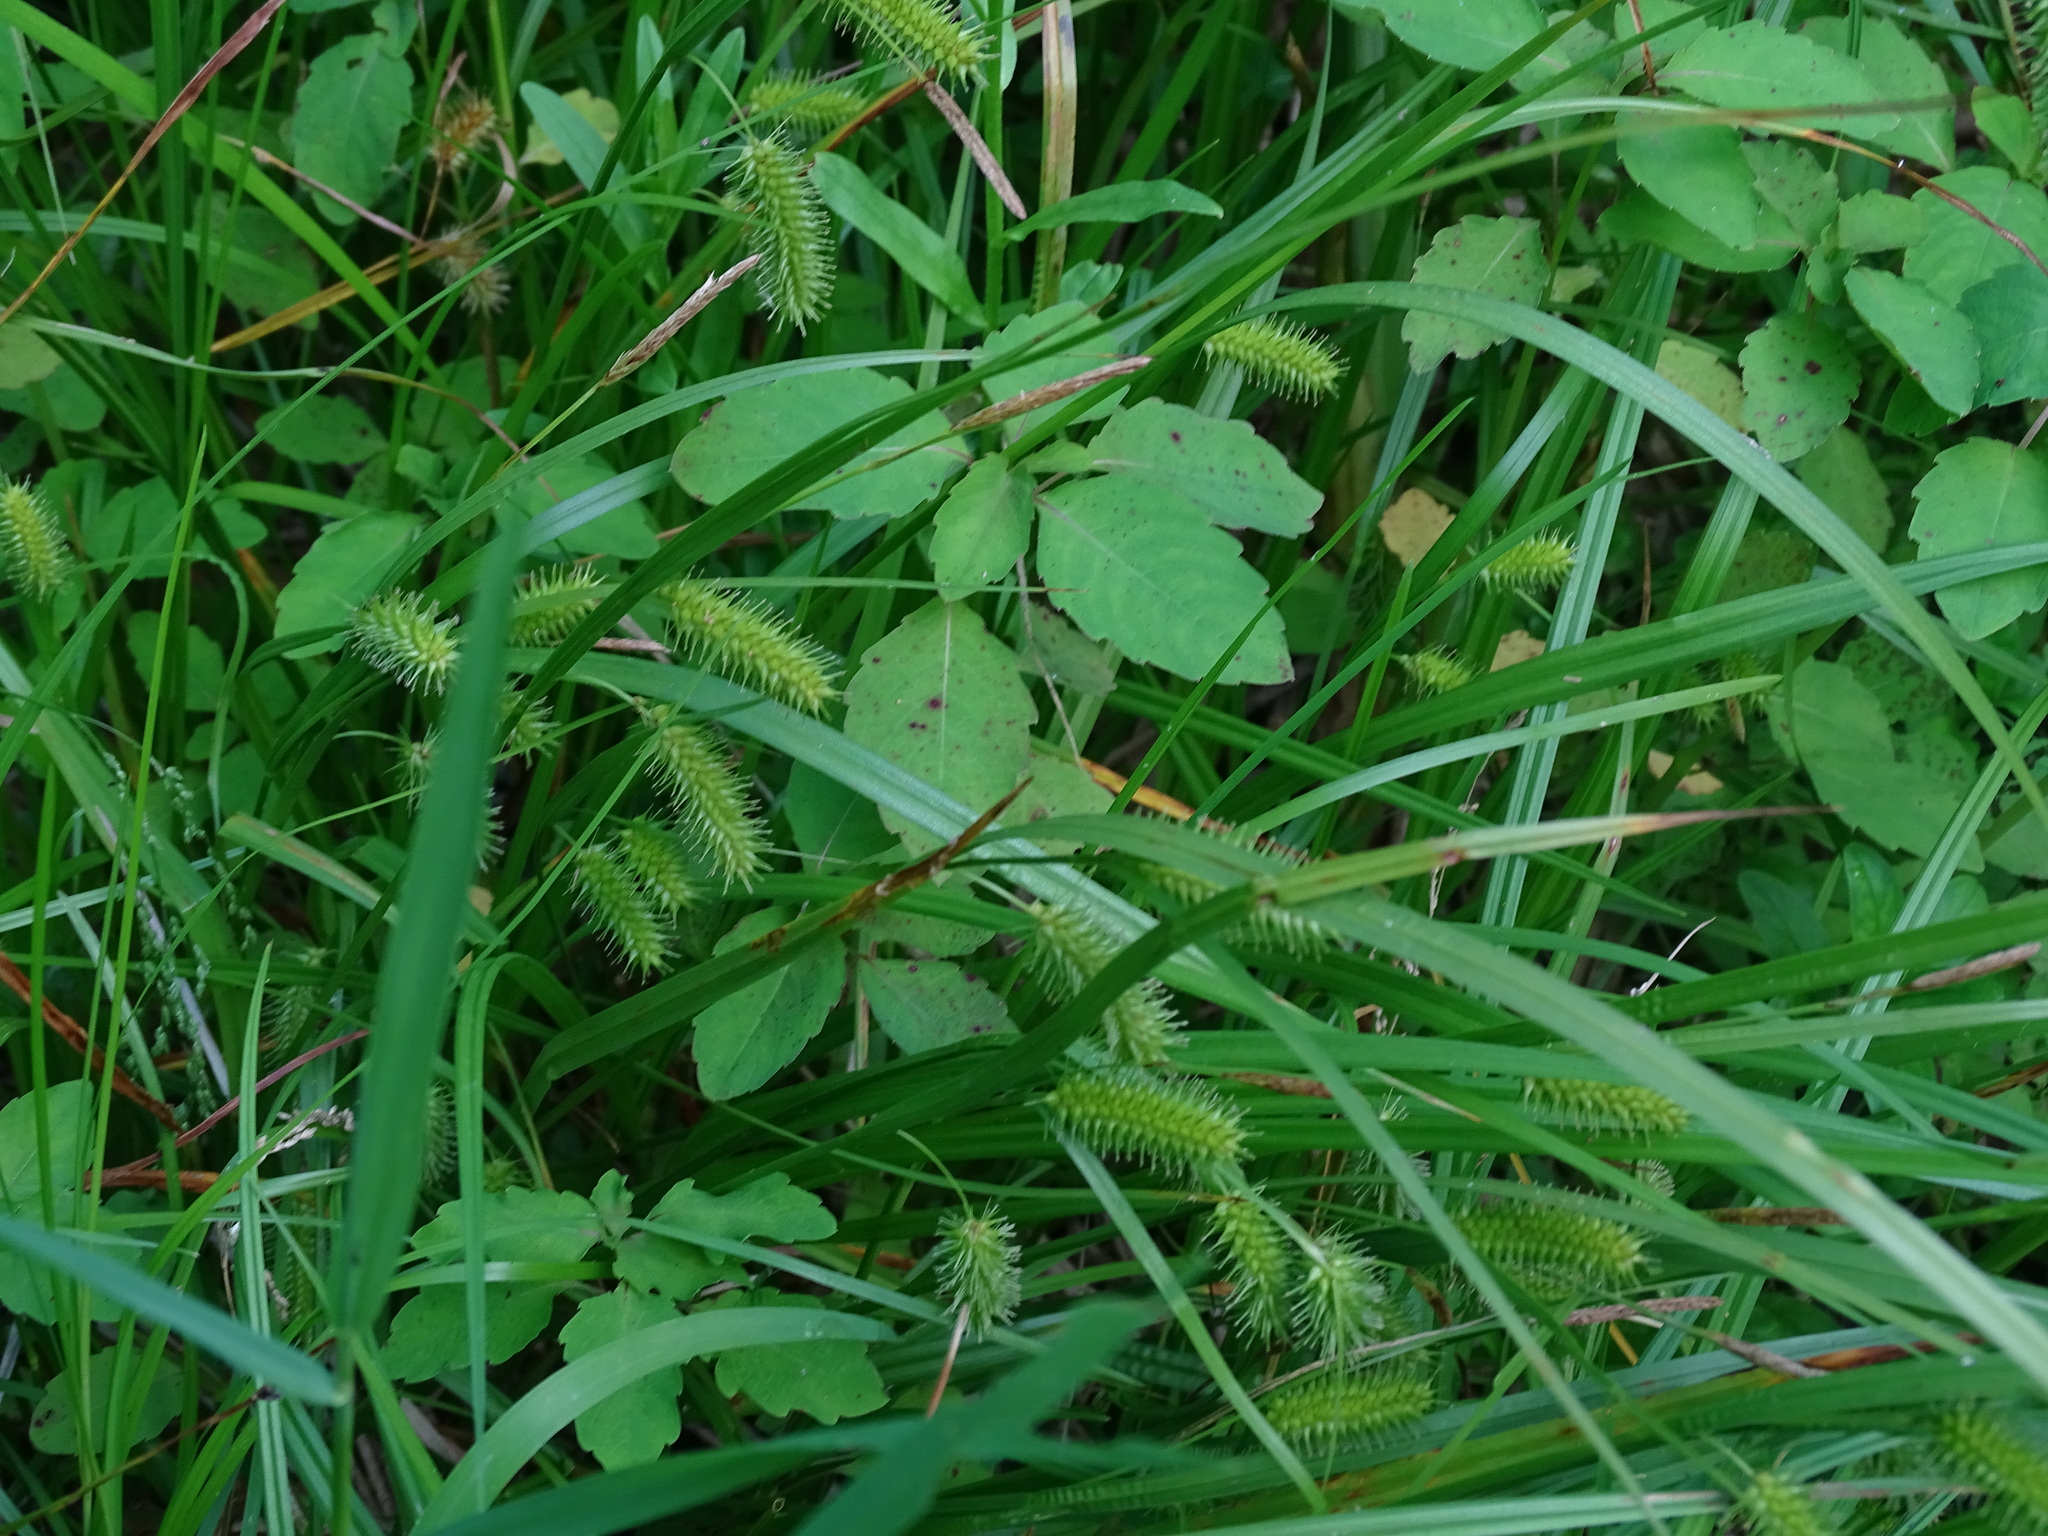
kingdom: Plantae
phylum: Tracheophyta
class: Liliopsida
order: Poales
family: Cyperaceae
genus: Carex
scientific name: Carex hystericina
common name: Bottlebrush sedge
